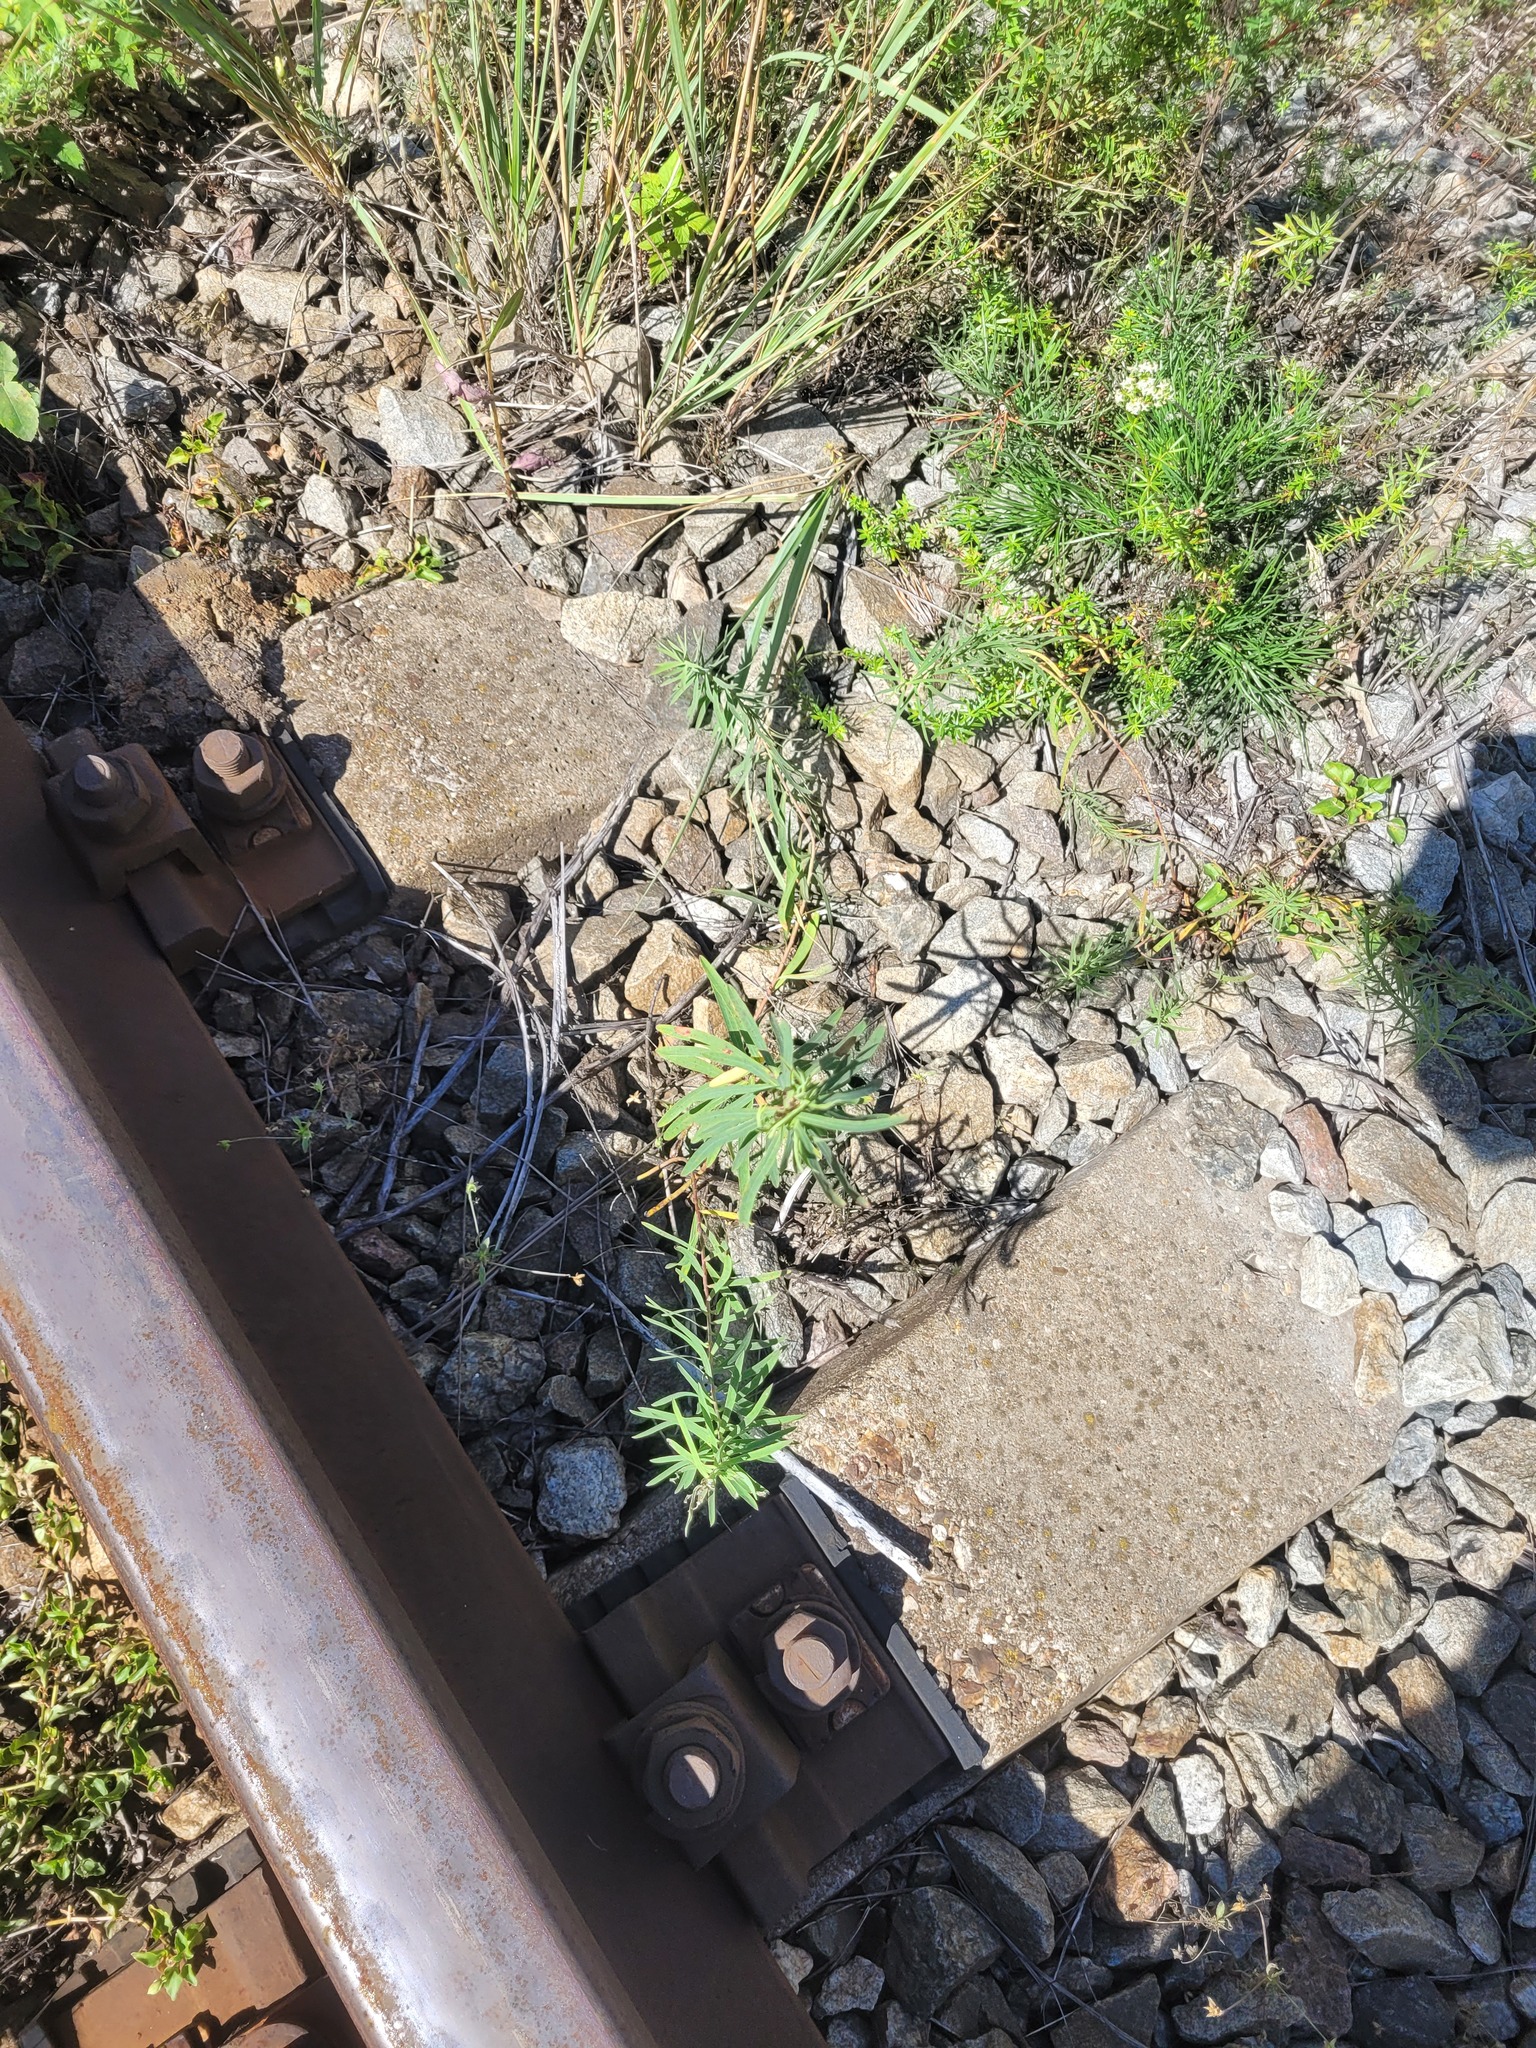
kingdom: Plantae
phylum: Tracheophyta
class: Magnoliopsida
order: Malpighiales
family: Euphorbiaceae
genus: Euphorbia
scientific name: Euphorbia virgata
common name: Leafy spurge
